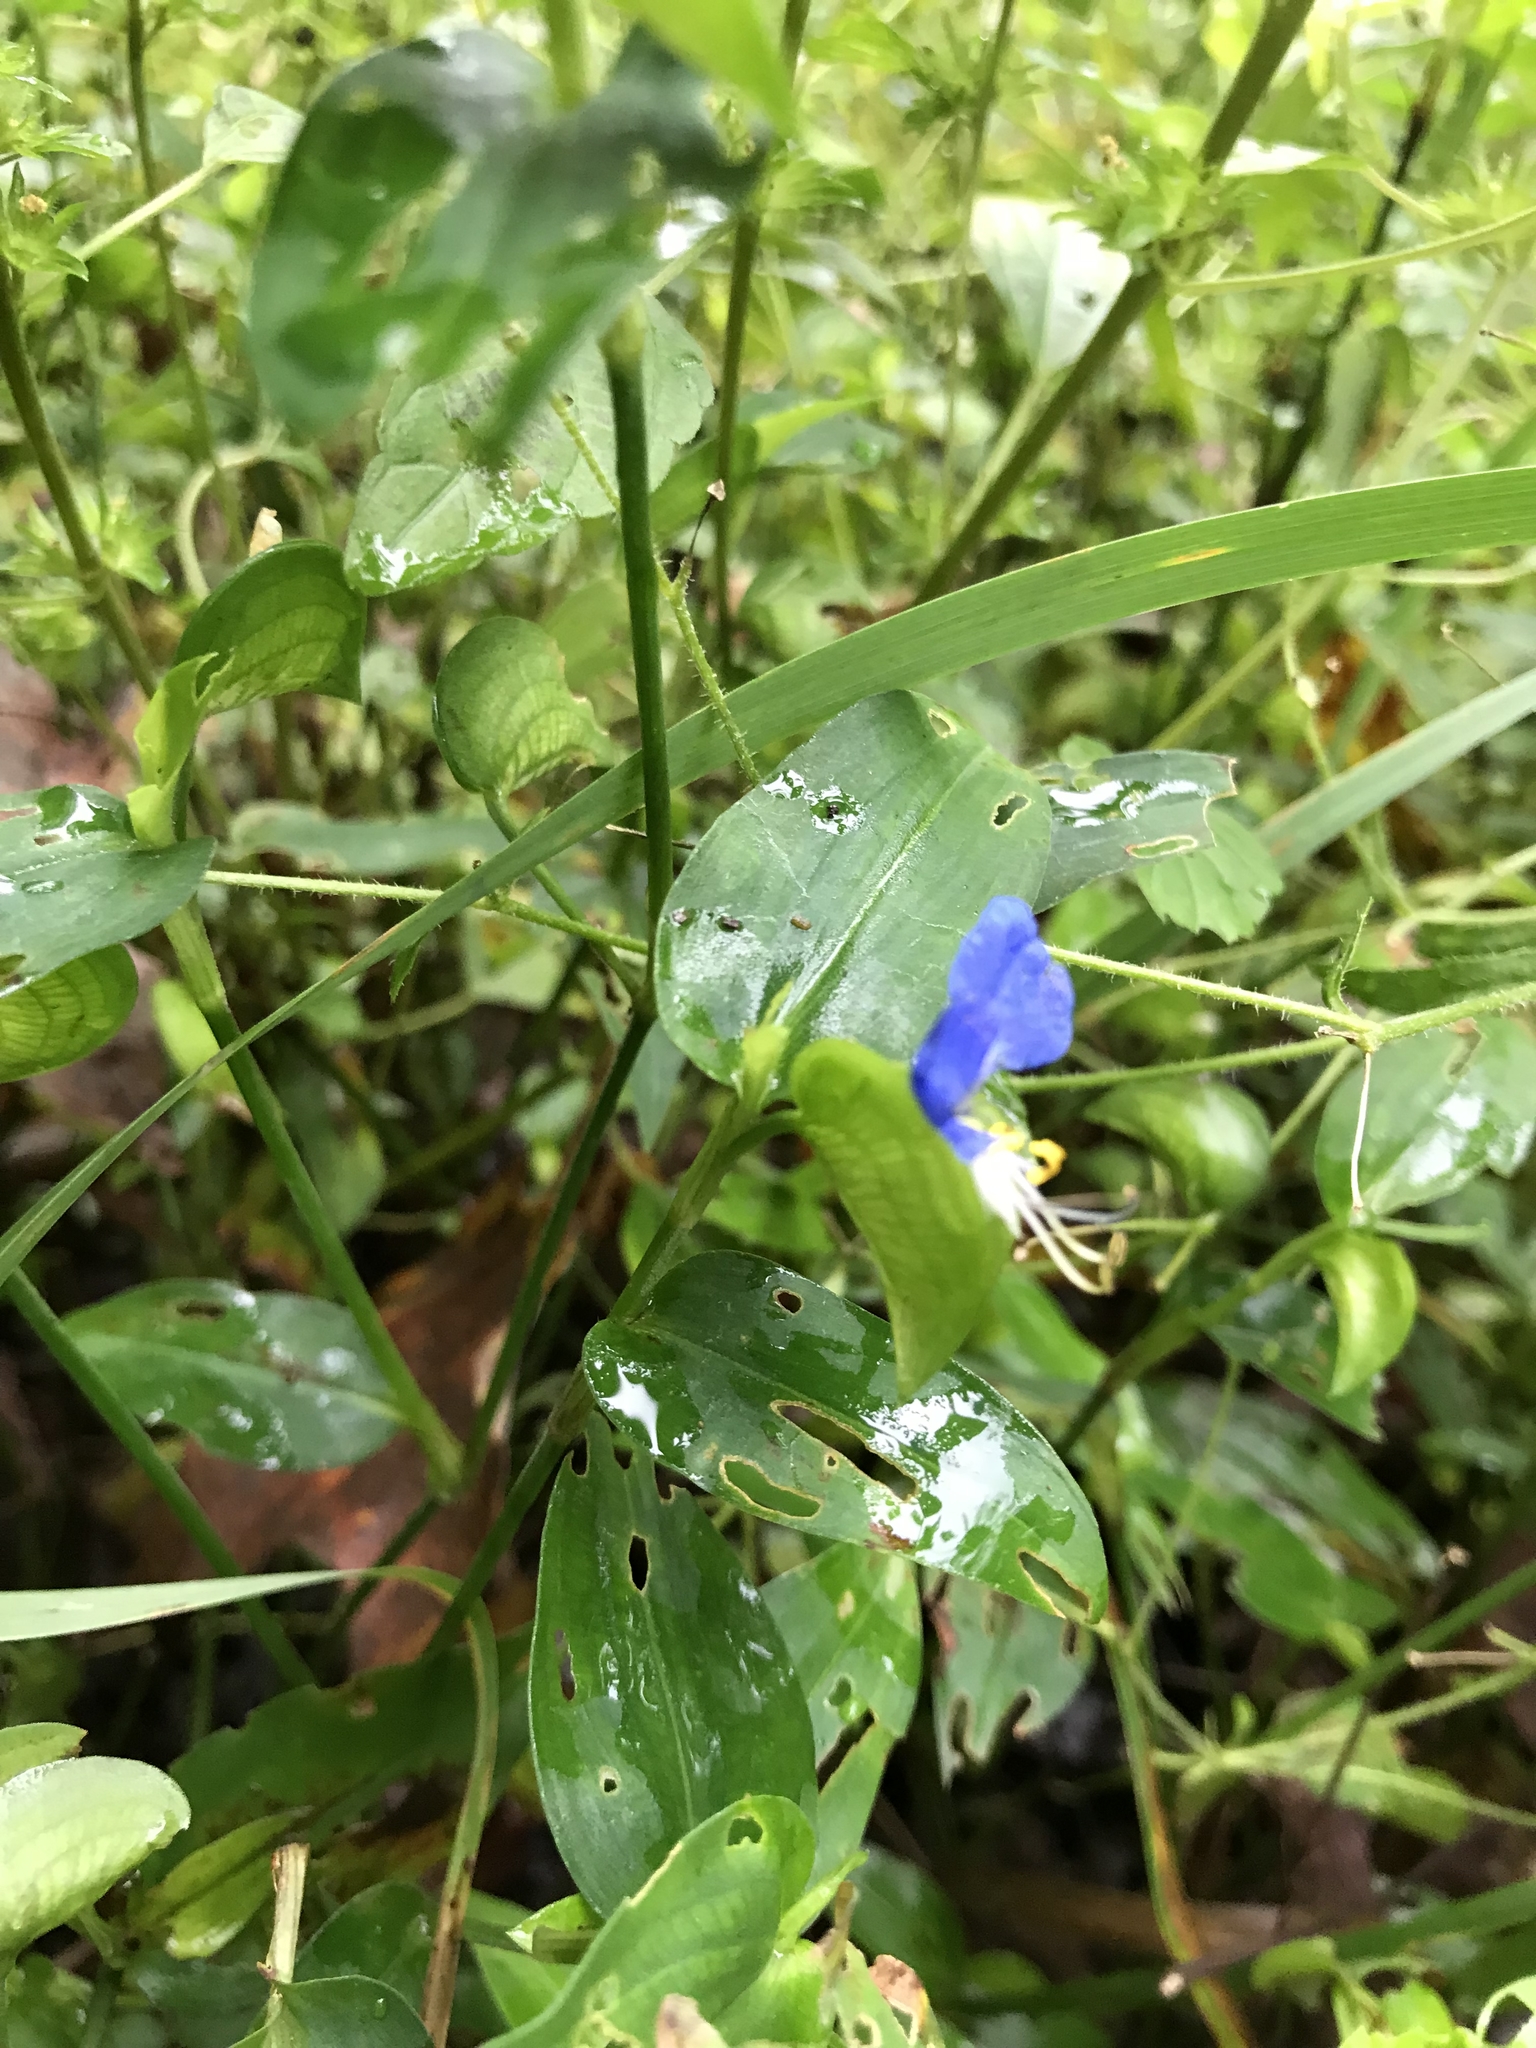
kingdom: Plantae
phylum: Tracheophyta
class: Liliopsida
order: Commelinales
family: Commelinaceae
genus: Commelina
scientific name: Commelina communis
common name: Asiatic dayflower
